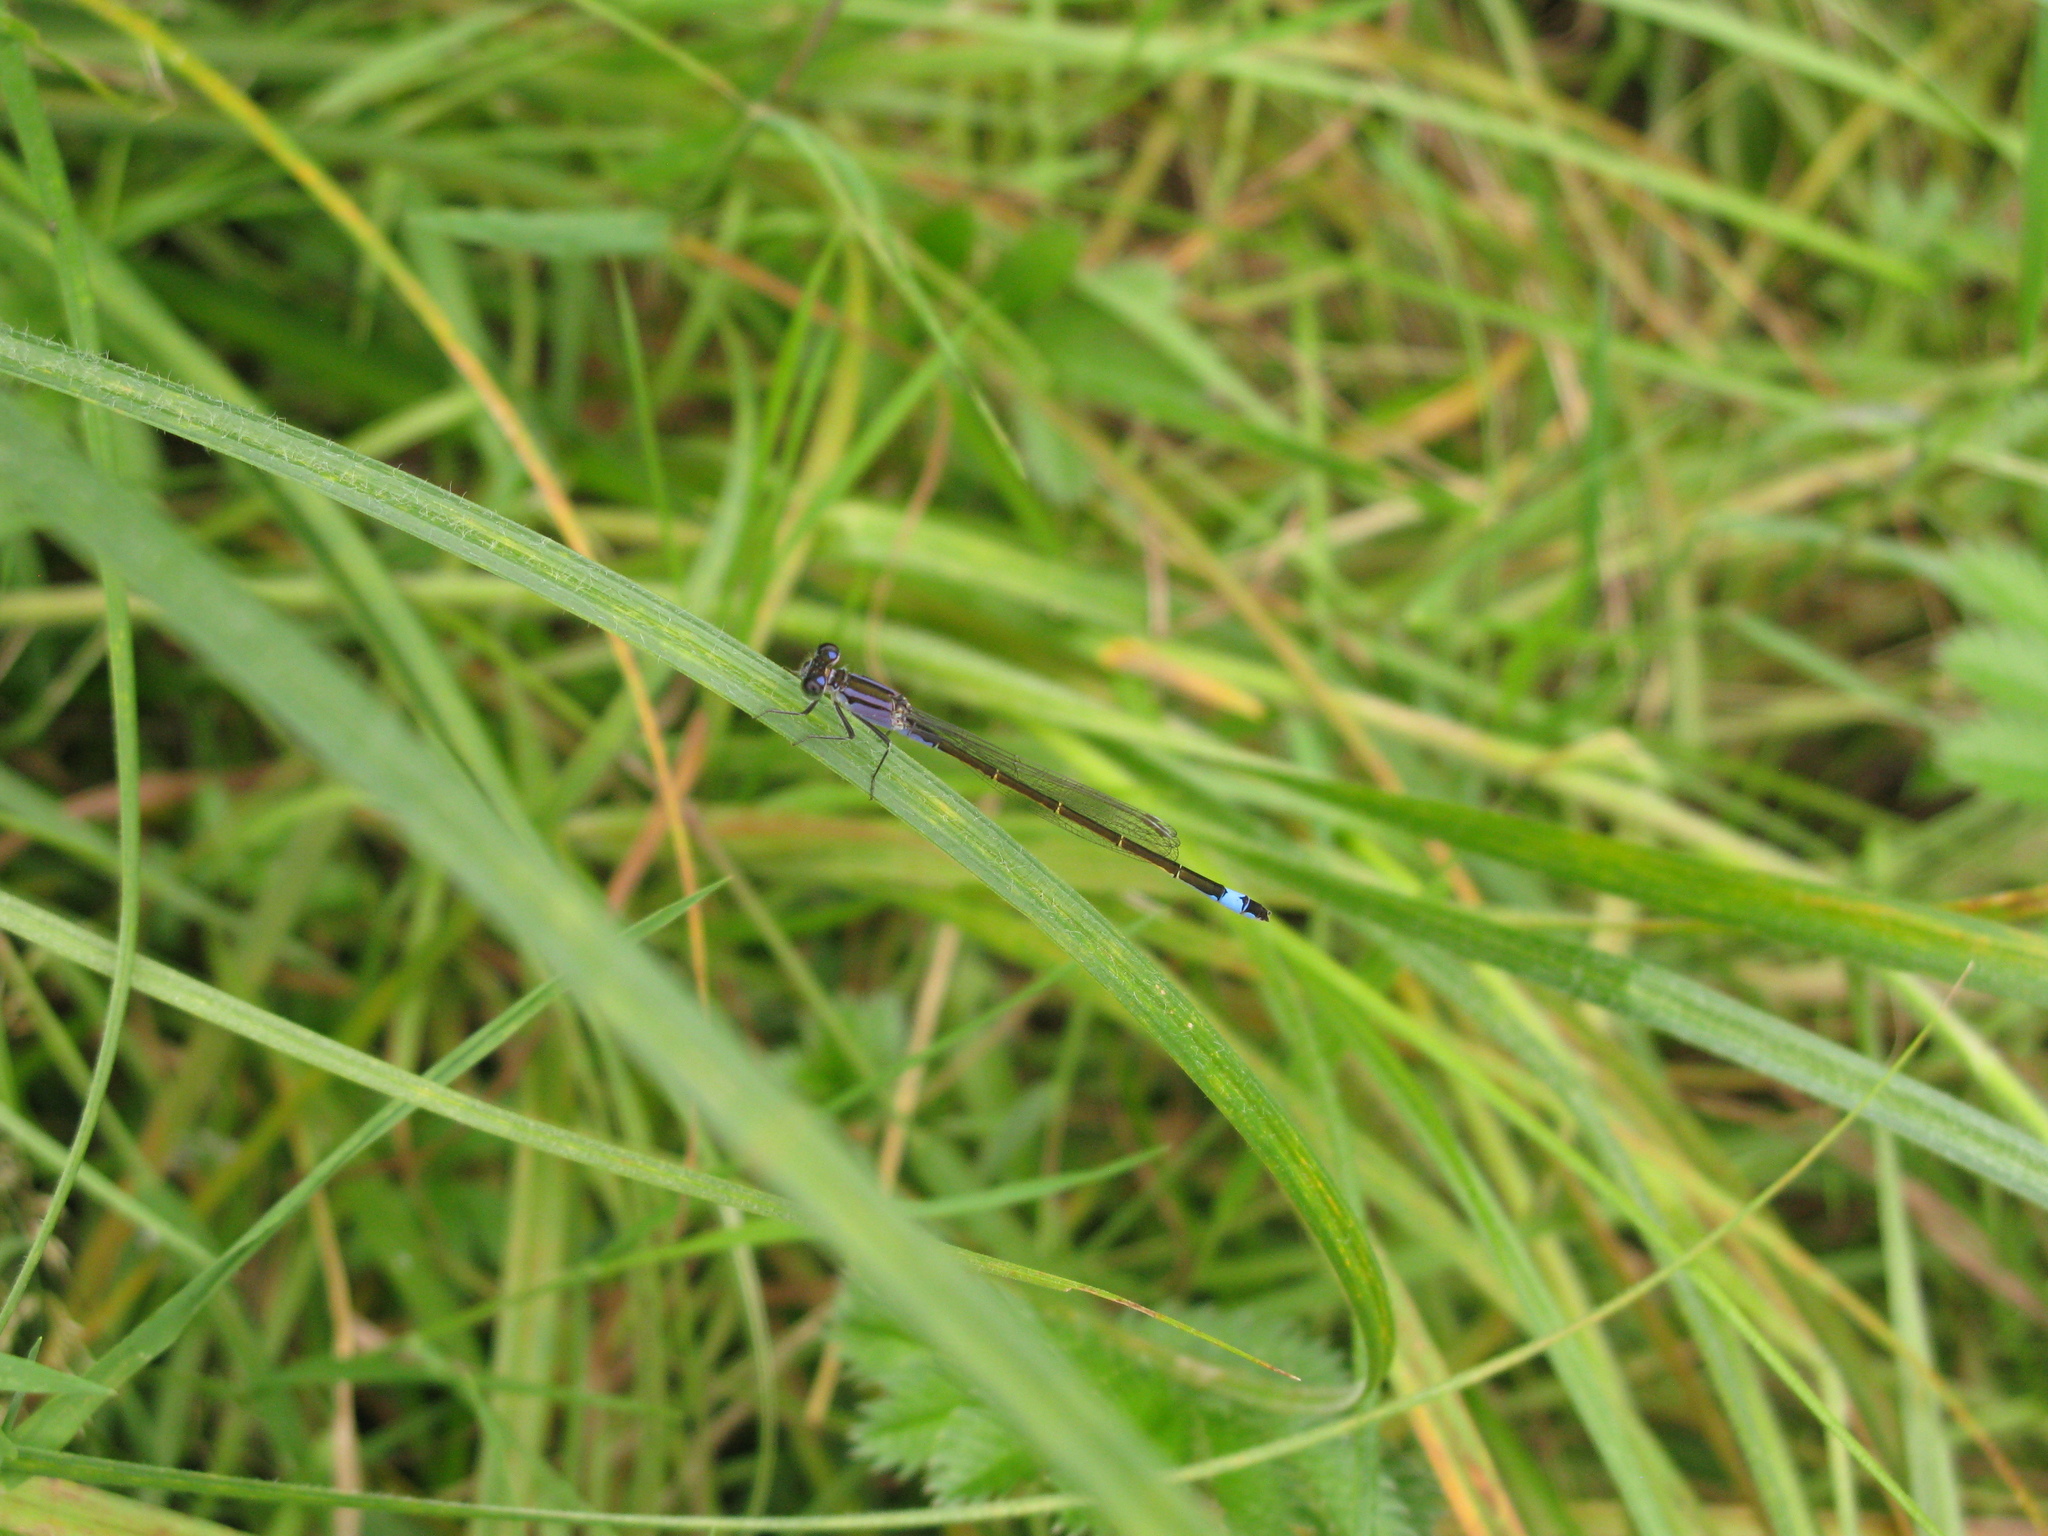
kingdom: Animalia
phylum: Arthropoda
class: Insecta
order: Odonata
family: Coenagrionidae
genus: Ischnura
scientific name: Ischnura elegans
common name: Blue-tailed damselfly
